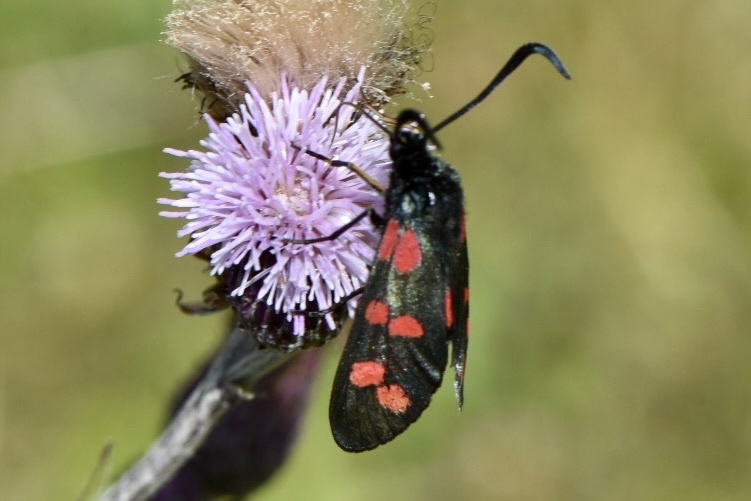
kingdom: Animalia
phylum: Arthropoda
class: Insecta
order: Lepidoptera
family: Zygaenidae
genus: Zygaena
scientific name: Zygaena filipendulae
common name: Six-spot burnet
